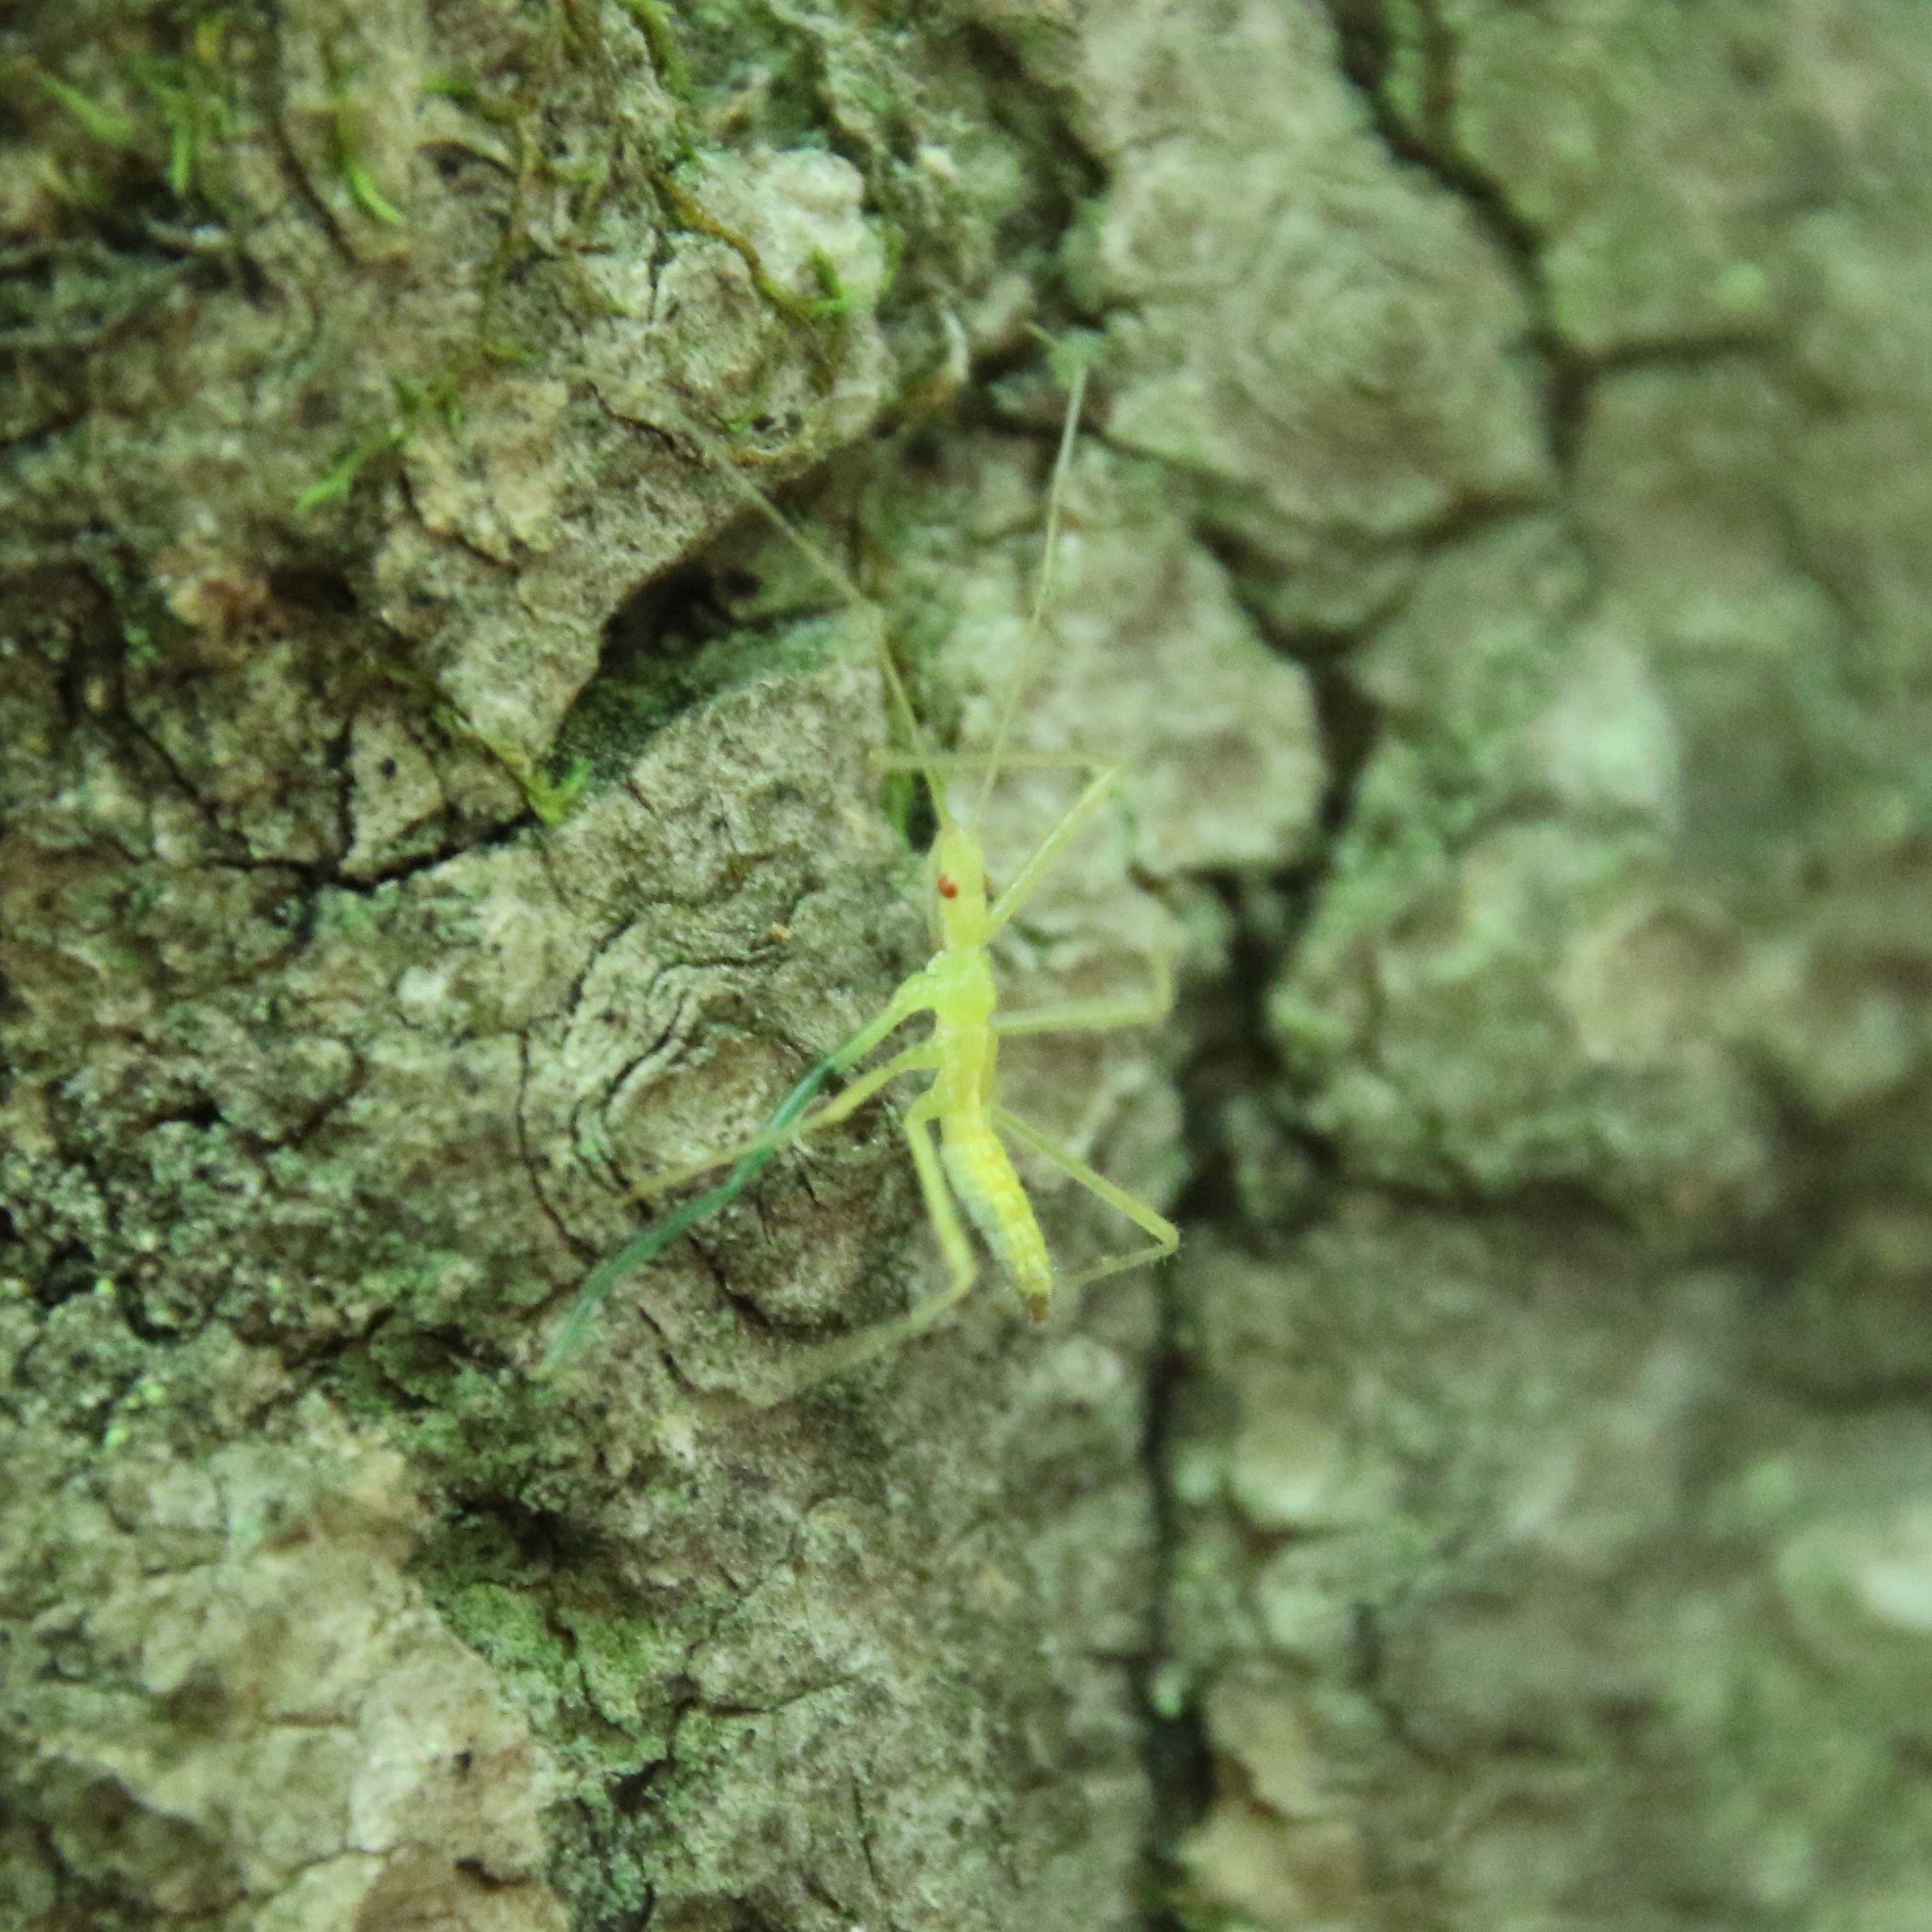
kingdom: Animalia
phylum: Arthropoda
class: Insecta
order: Hemiptera
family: Reduviidae
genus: Zelus
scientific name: Zelus luridus
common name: Pale green assassin bug
